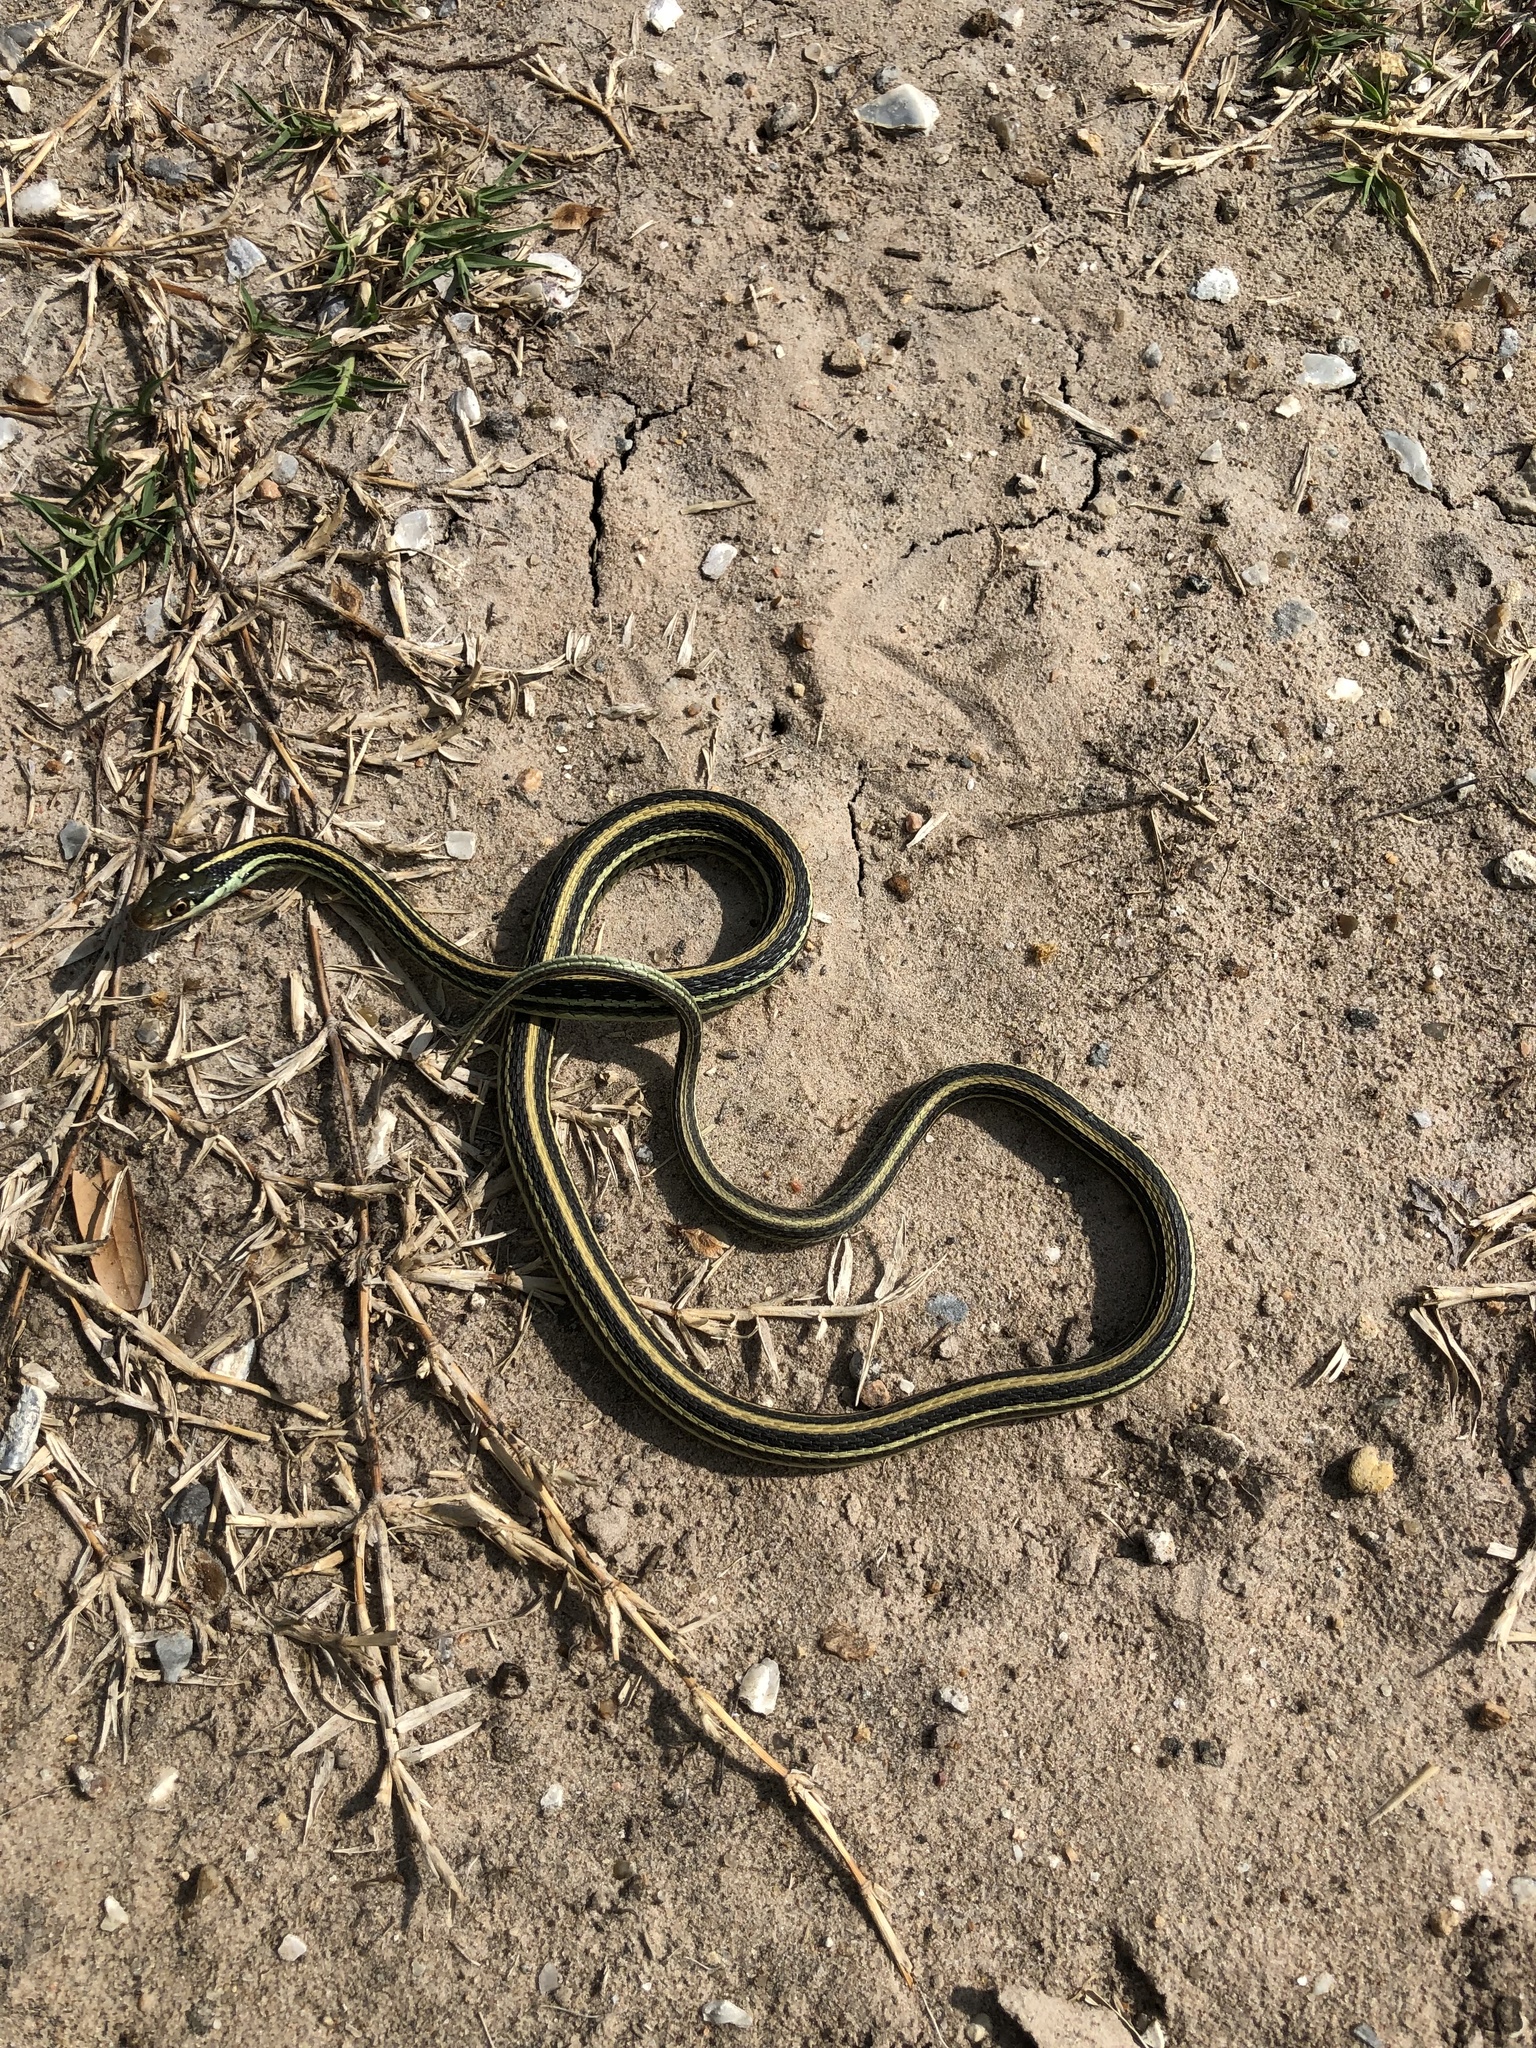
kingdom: Animalia
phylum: Chordata
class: Squamata
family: Colubridae
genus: Thamnophis
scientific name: Thamnophis proximus
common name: Western ribbon snake
